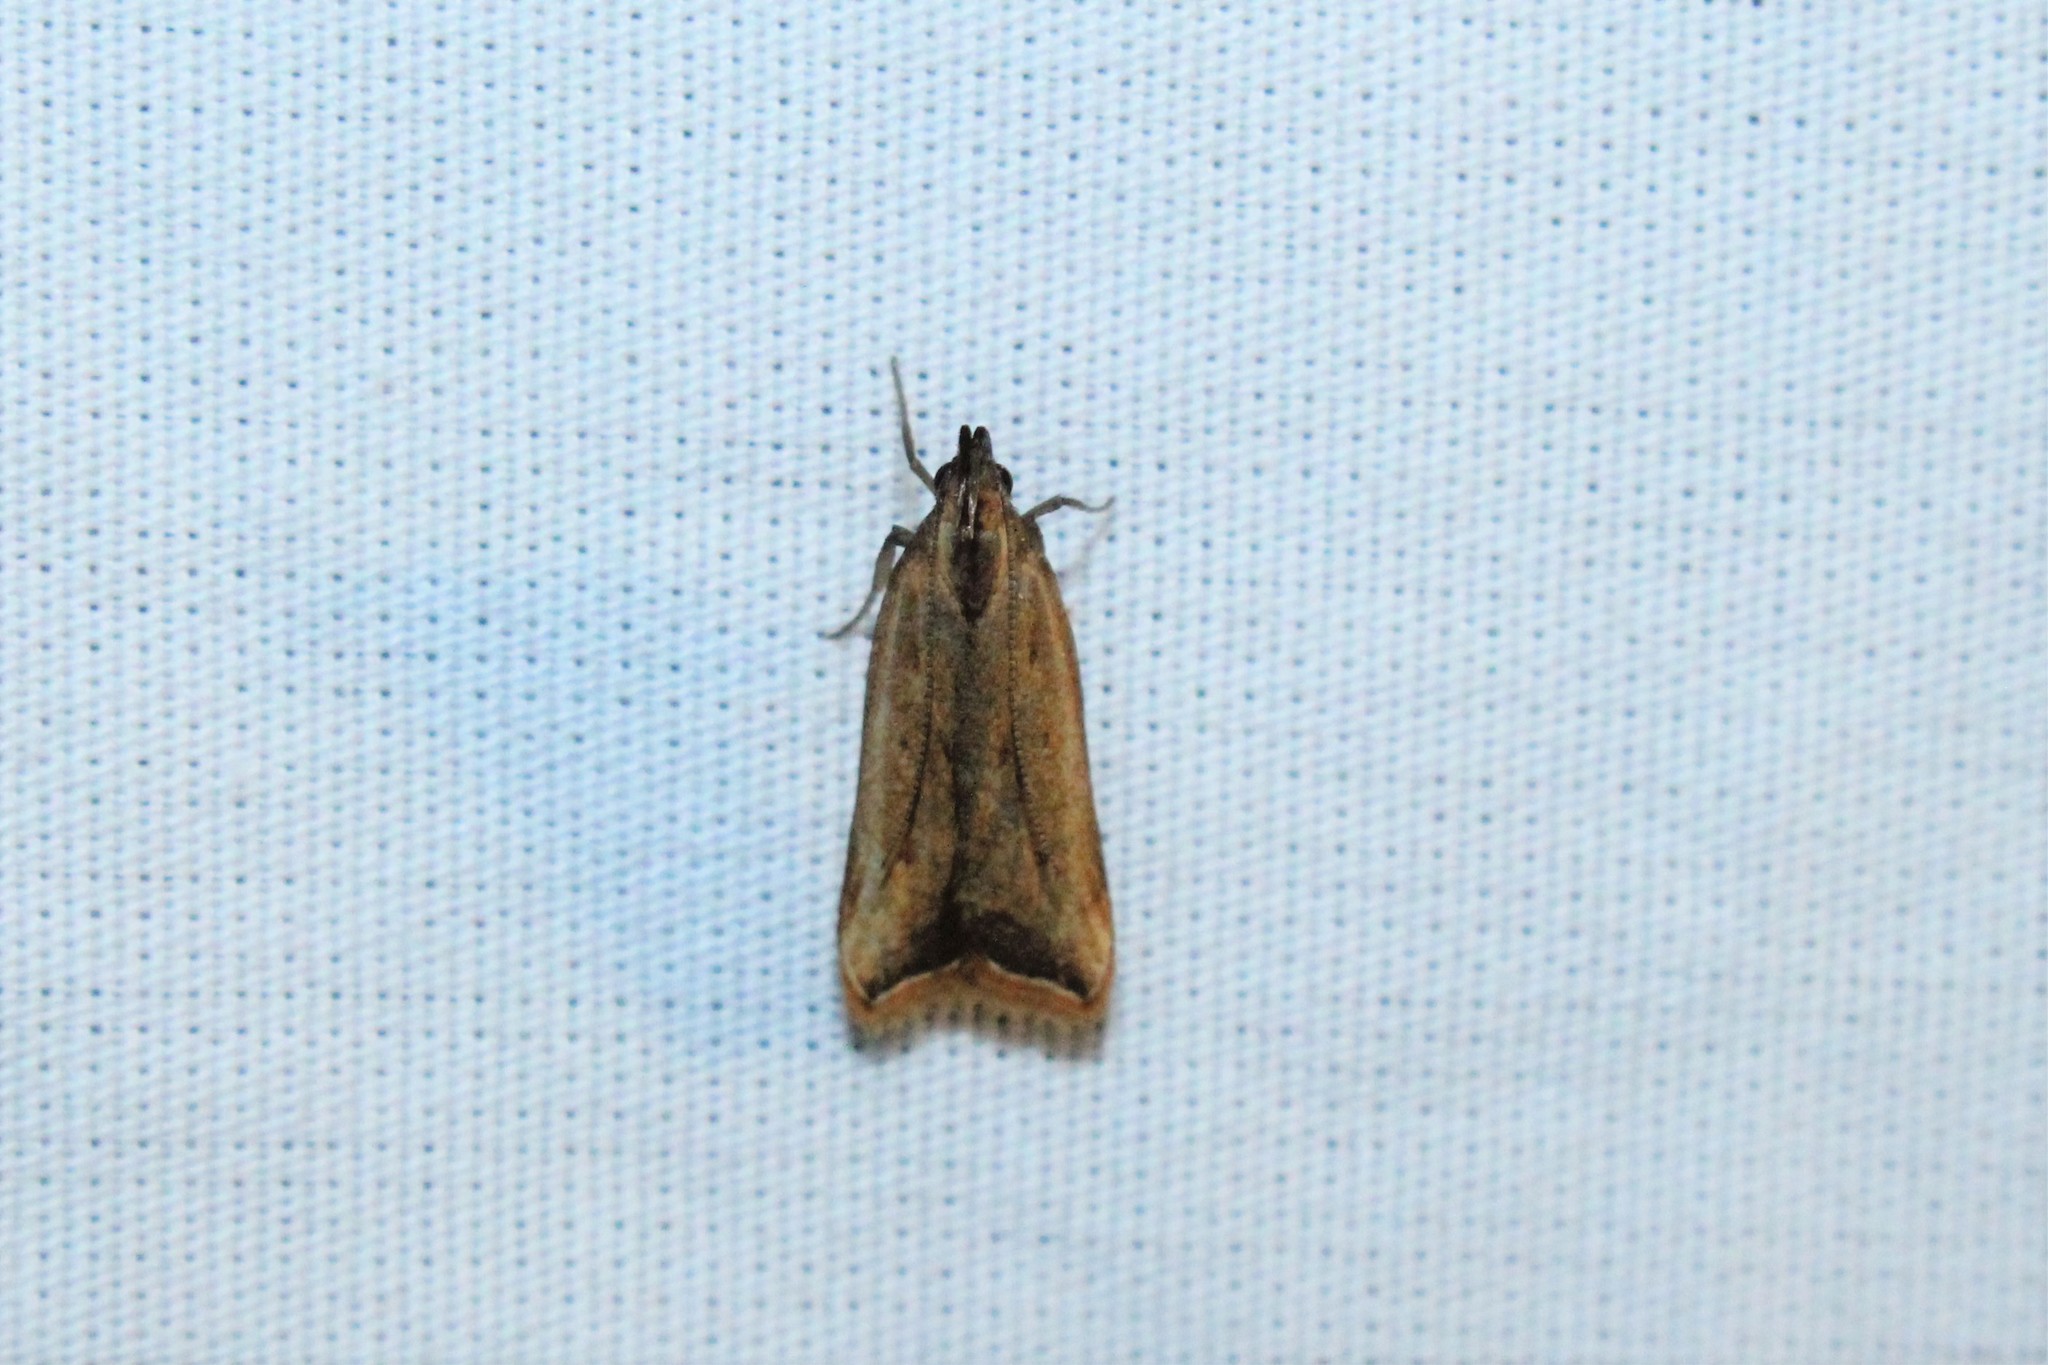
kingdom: Animalia
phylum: Arthropoda
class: Insecta
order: Lepidoptera
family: Gelechiidae
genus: Dichomeris
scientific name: Dichomeris heriguronis
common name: Black-edged dichomeris moth
